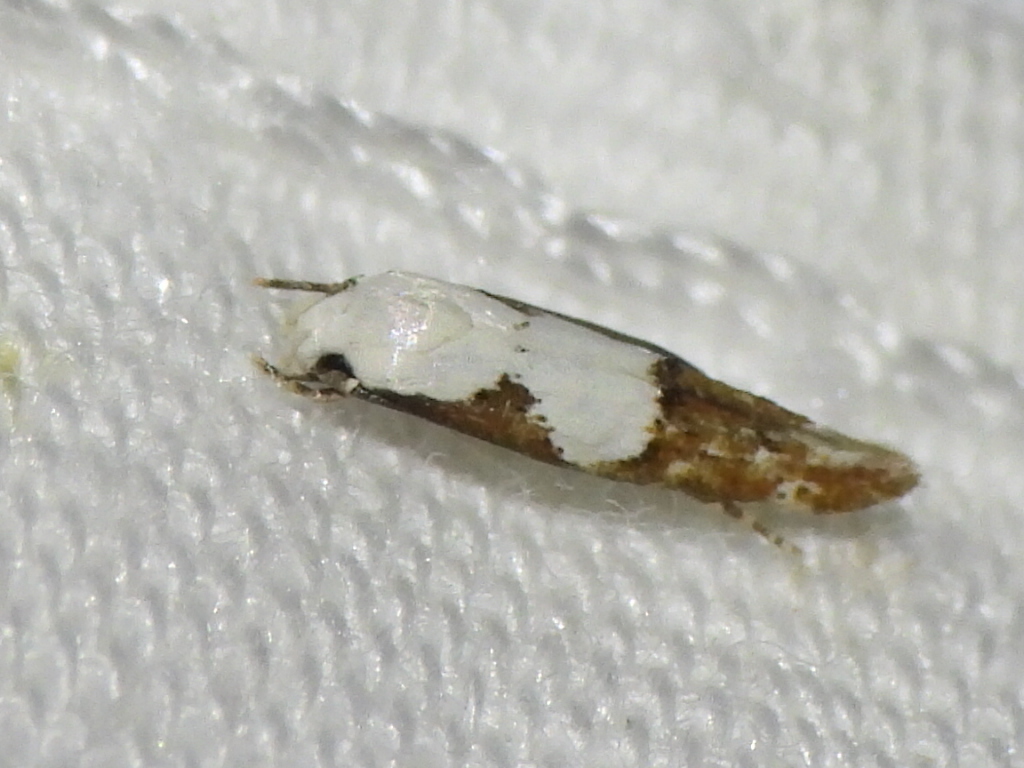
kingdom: Animalia
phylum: Arthropoda
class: Insecta
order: Lepidoptera
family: Momphidae
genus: Mompha
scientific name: Mompha circumscriptella
